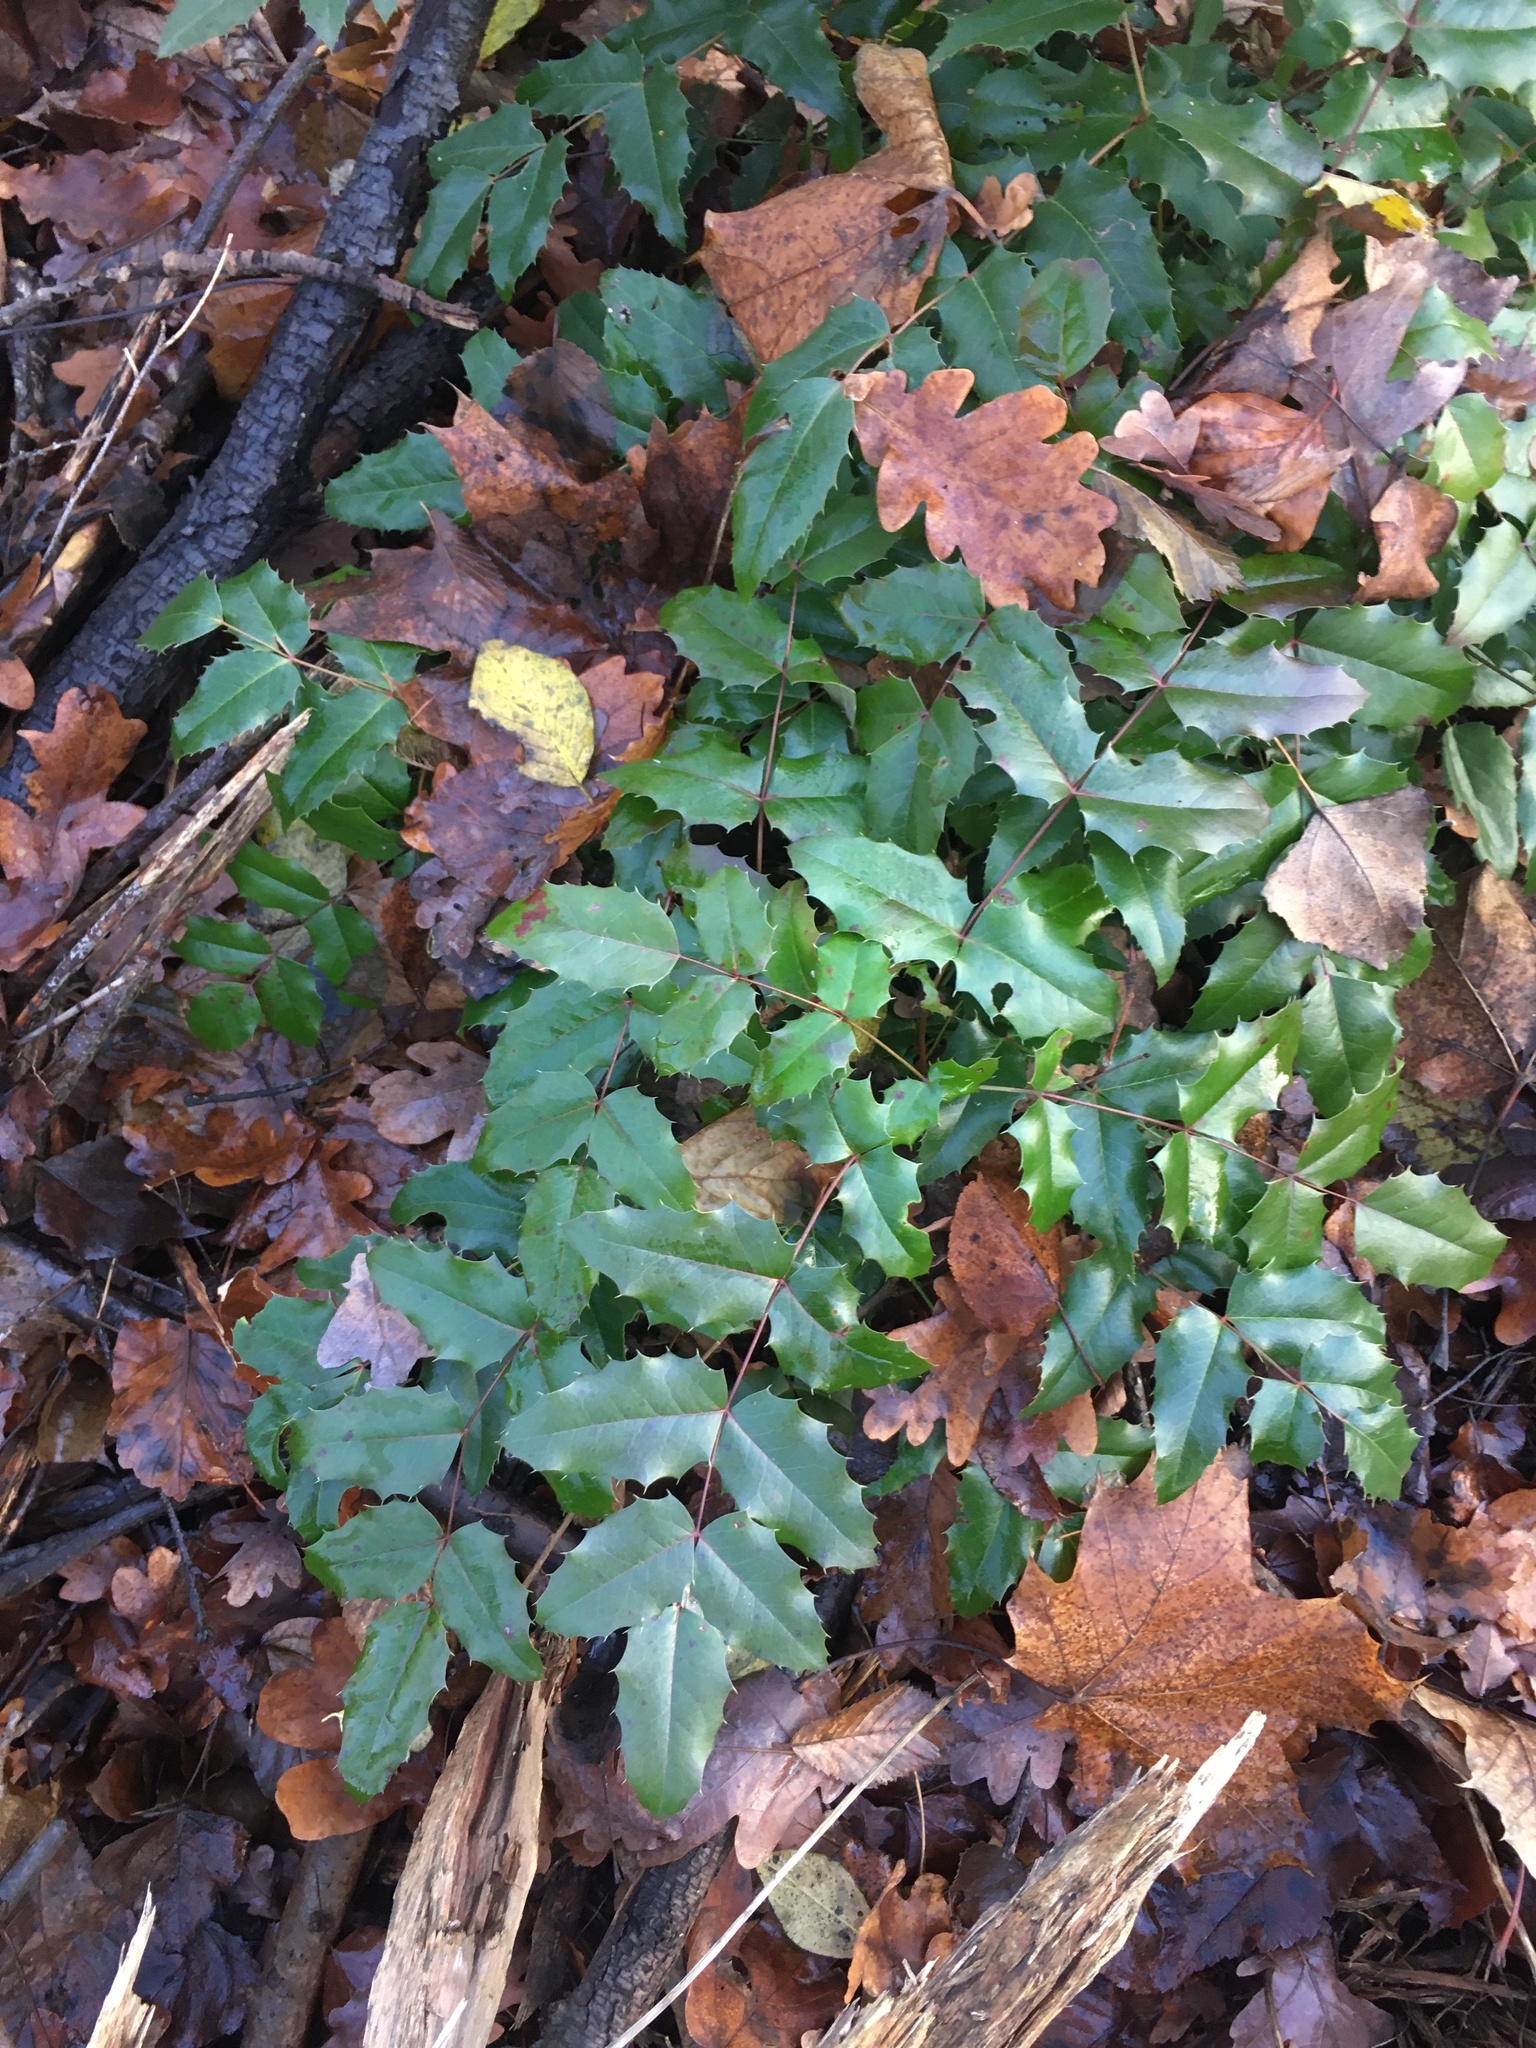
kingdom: Plantae
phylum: Tracheophyta
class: Magnoliopsida
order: Ranunculales
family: Berberidaceae
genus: Mahonia
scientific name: Mahonia aquifolium
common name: Oregon-grape
